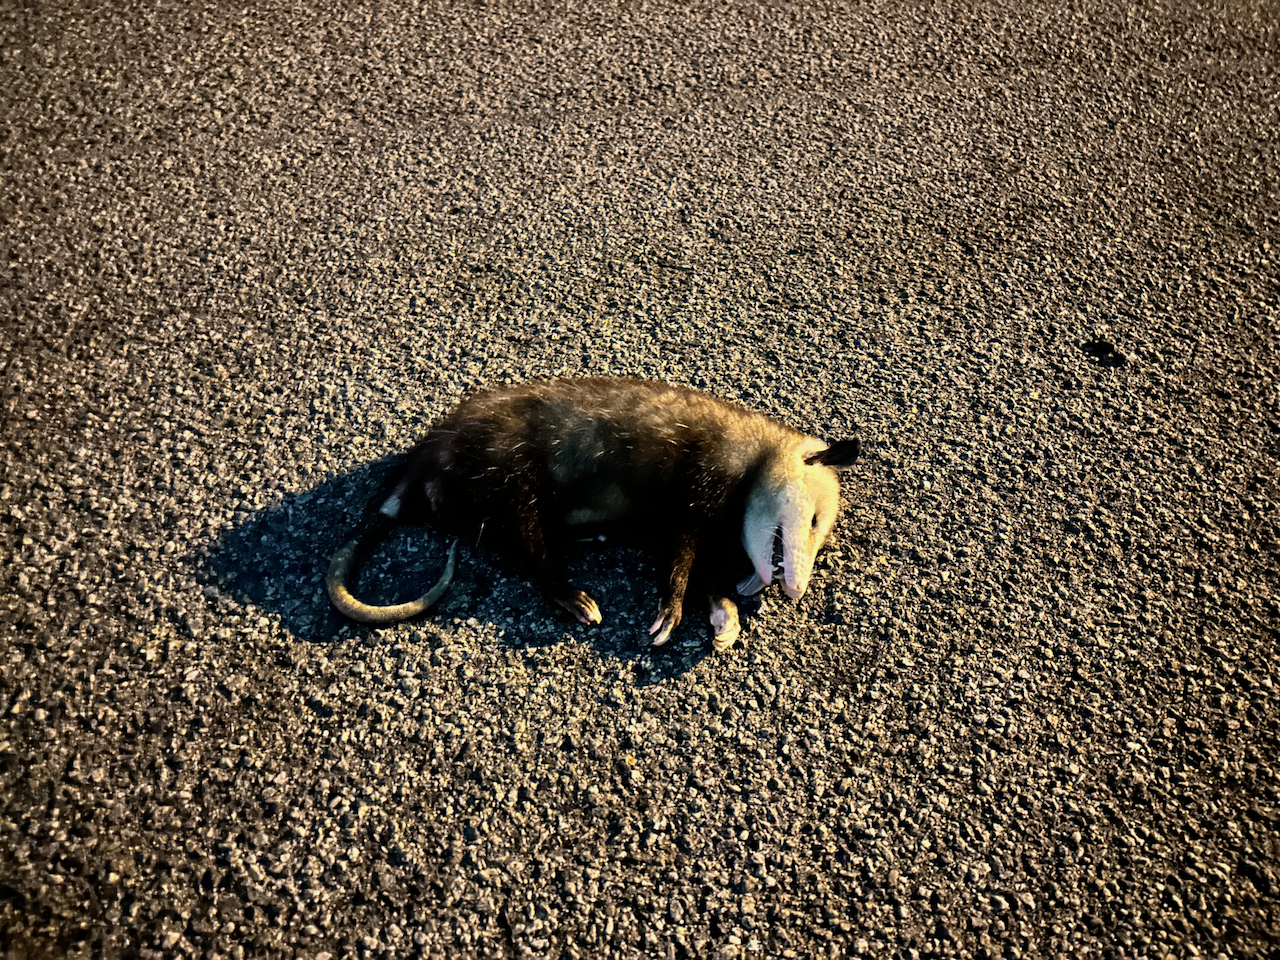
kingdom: Animalia
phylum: Chordata
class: Mammalia
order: Didelphimorphia
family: Didelphidae
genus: Didelphis
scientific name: Didelphis virginiana
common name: Virginia opossum
